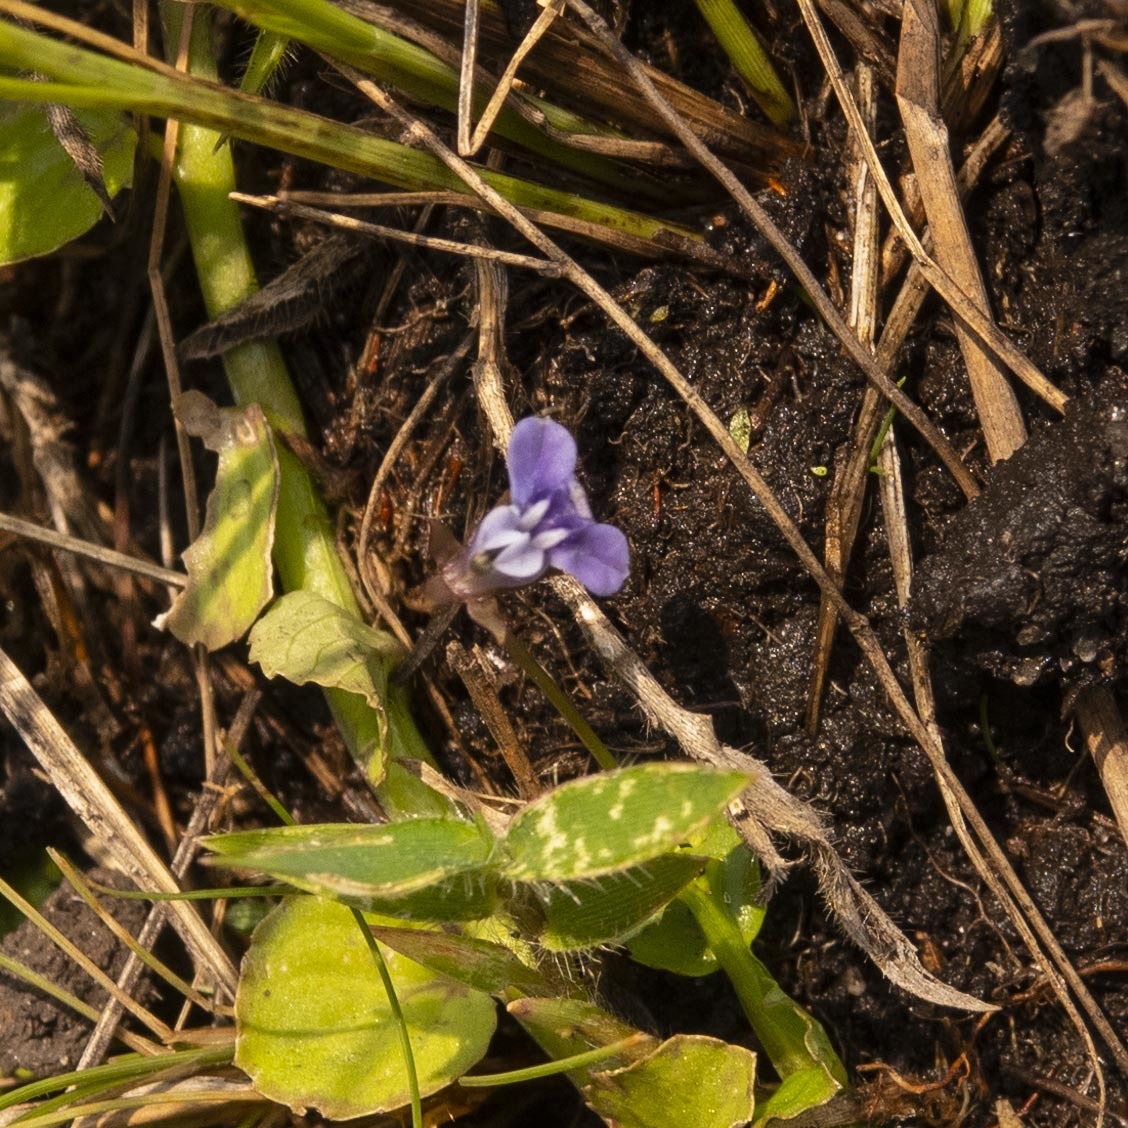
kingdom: Plantae
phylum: Tracheophyta
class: Magnoliopsida
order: Asterales
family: Campanulaceae
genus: Lobelia
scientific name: Lobelia alsinoides
